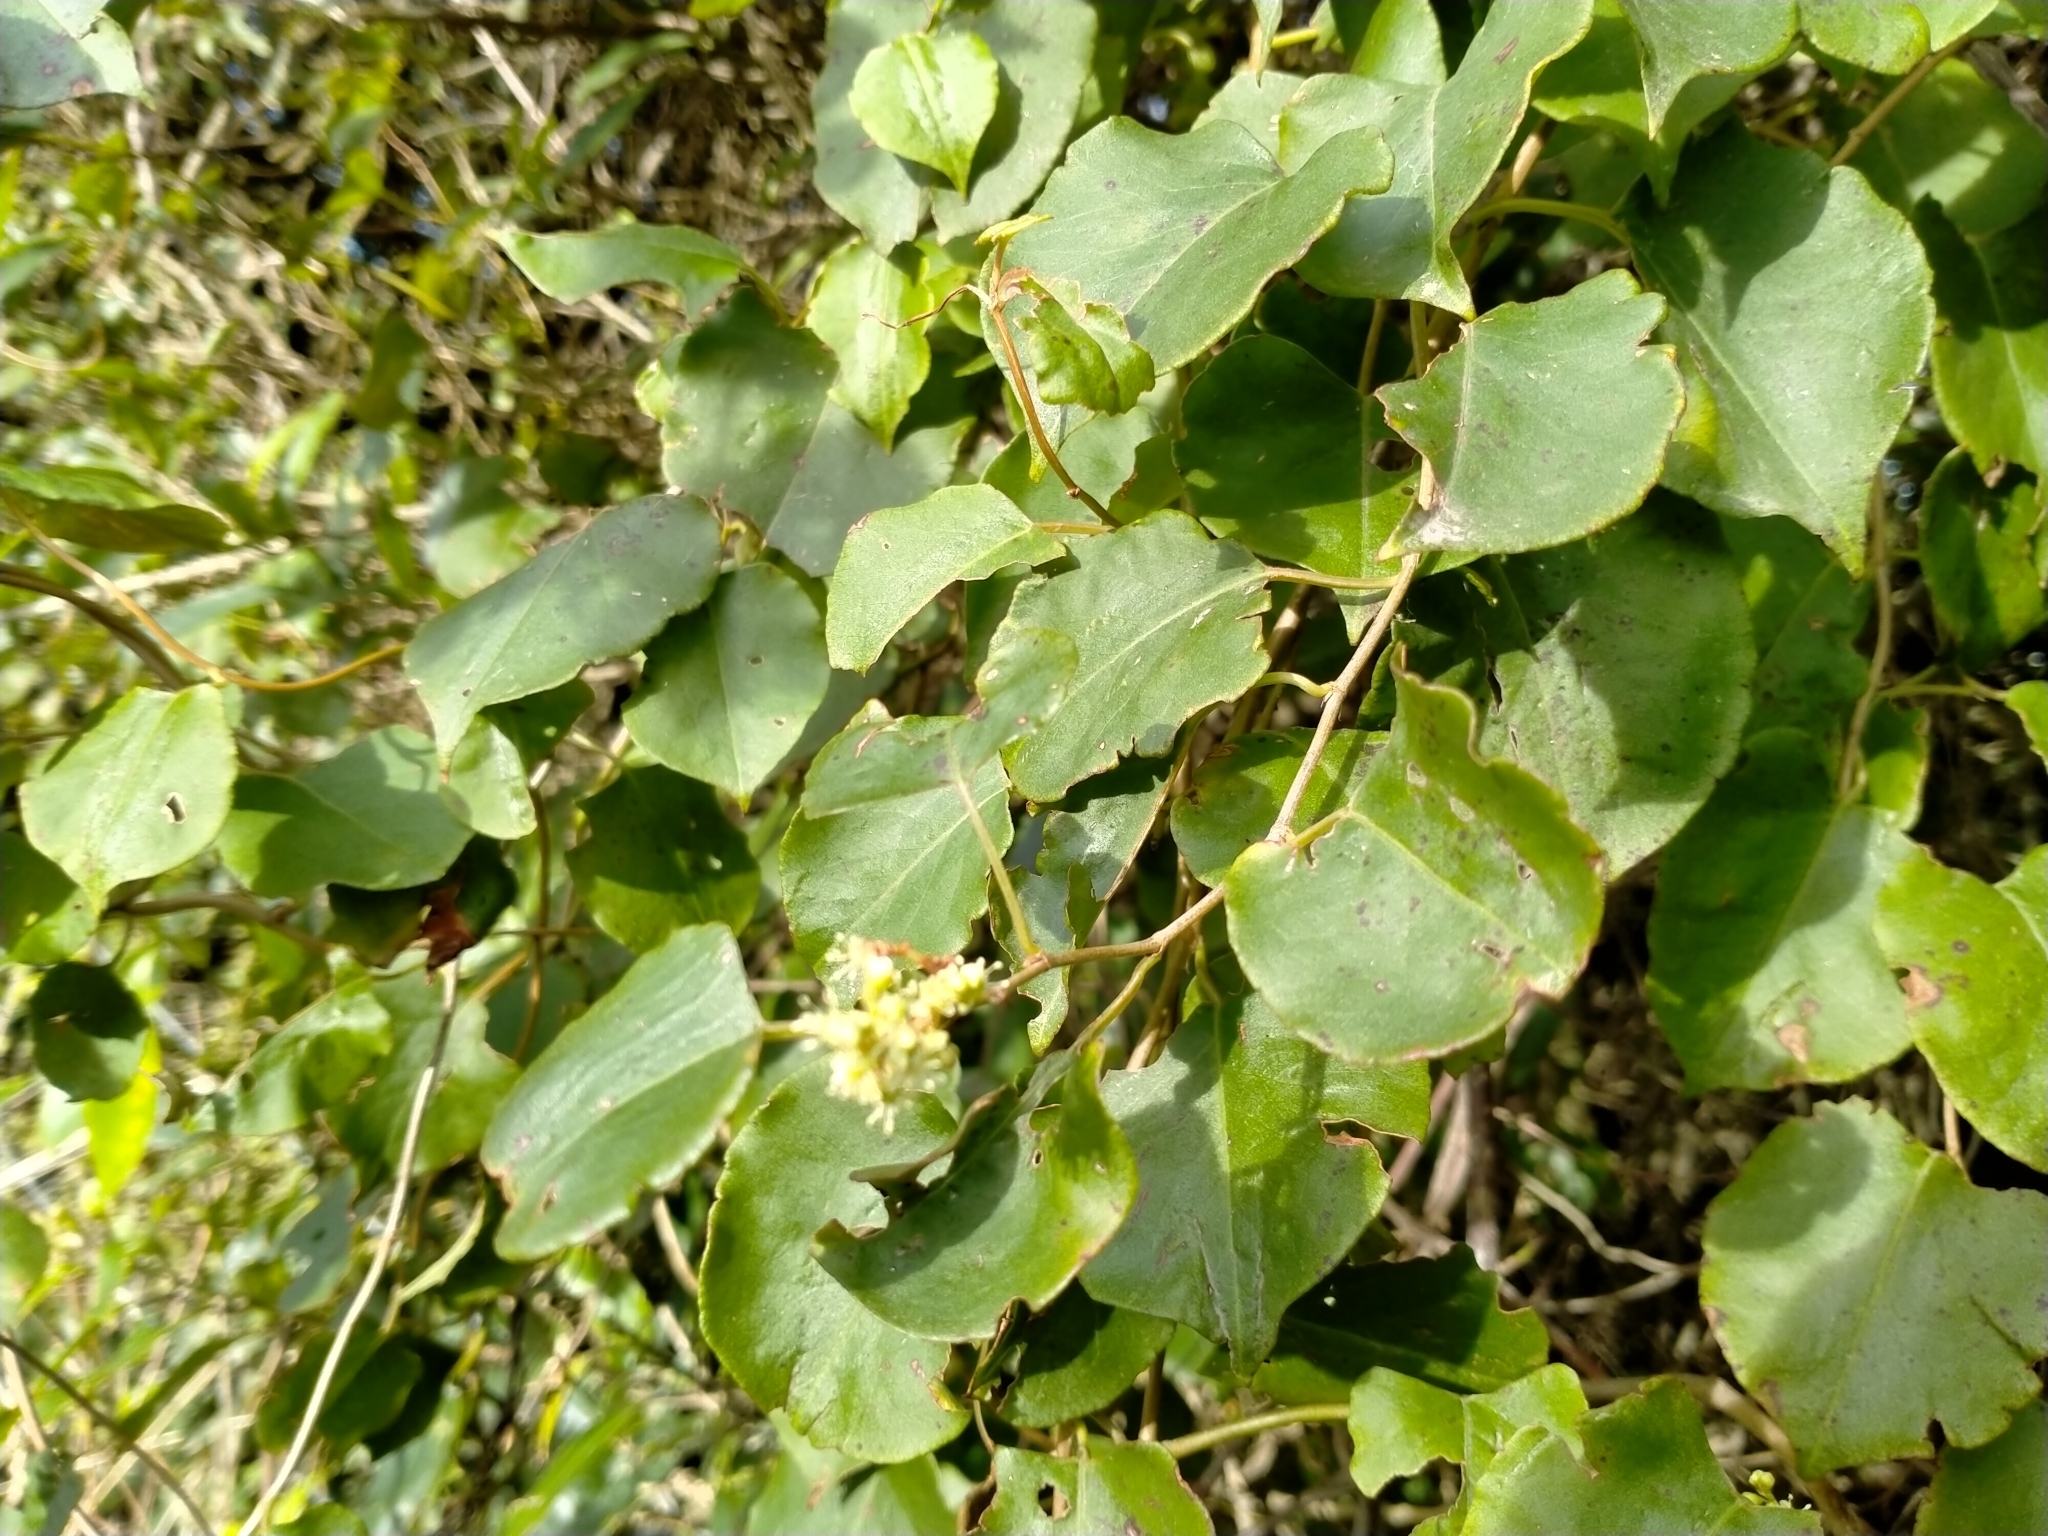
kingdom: Plantae
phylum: Tracheophyta
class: Magnoliopsida
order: Caryophyllales
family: Polygonaceae
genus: Muehlenbeckia
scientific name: Muehlenbeckia australis
